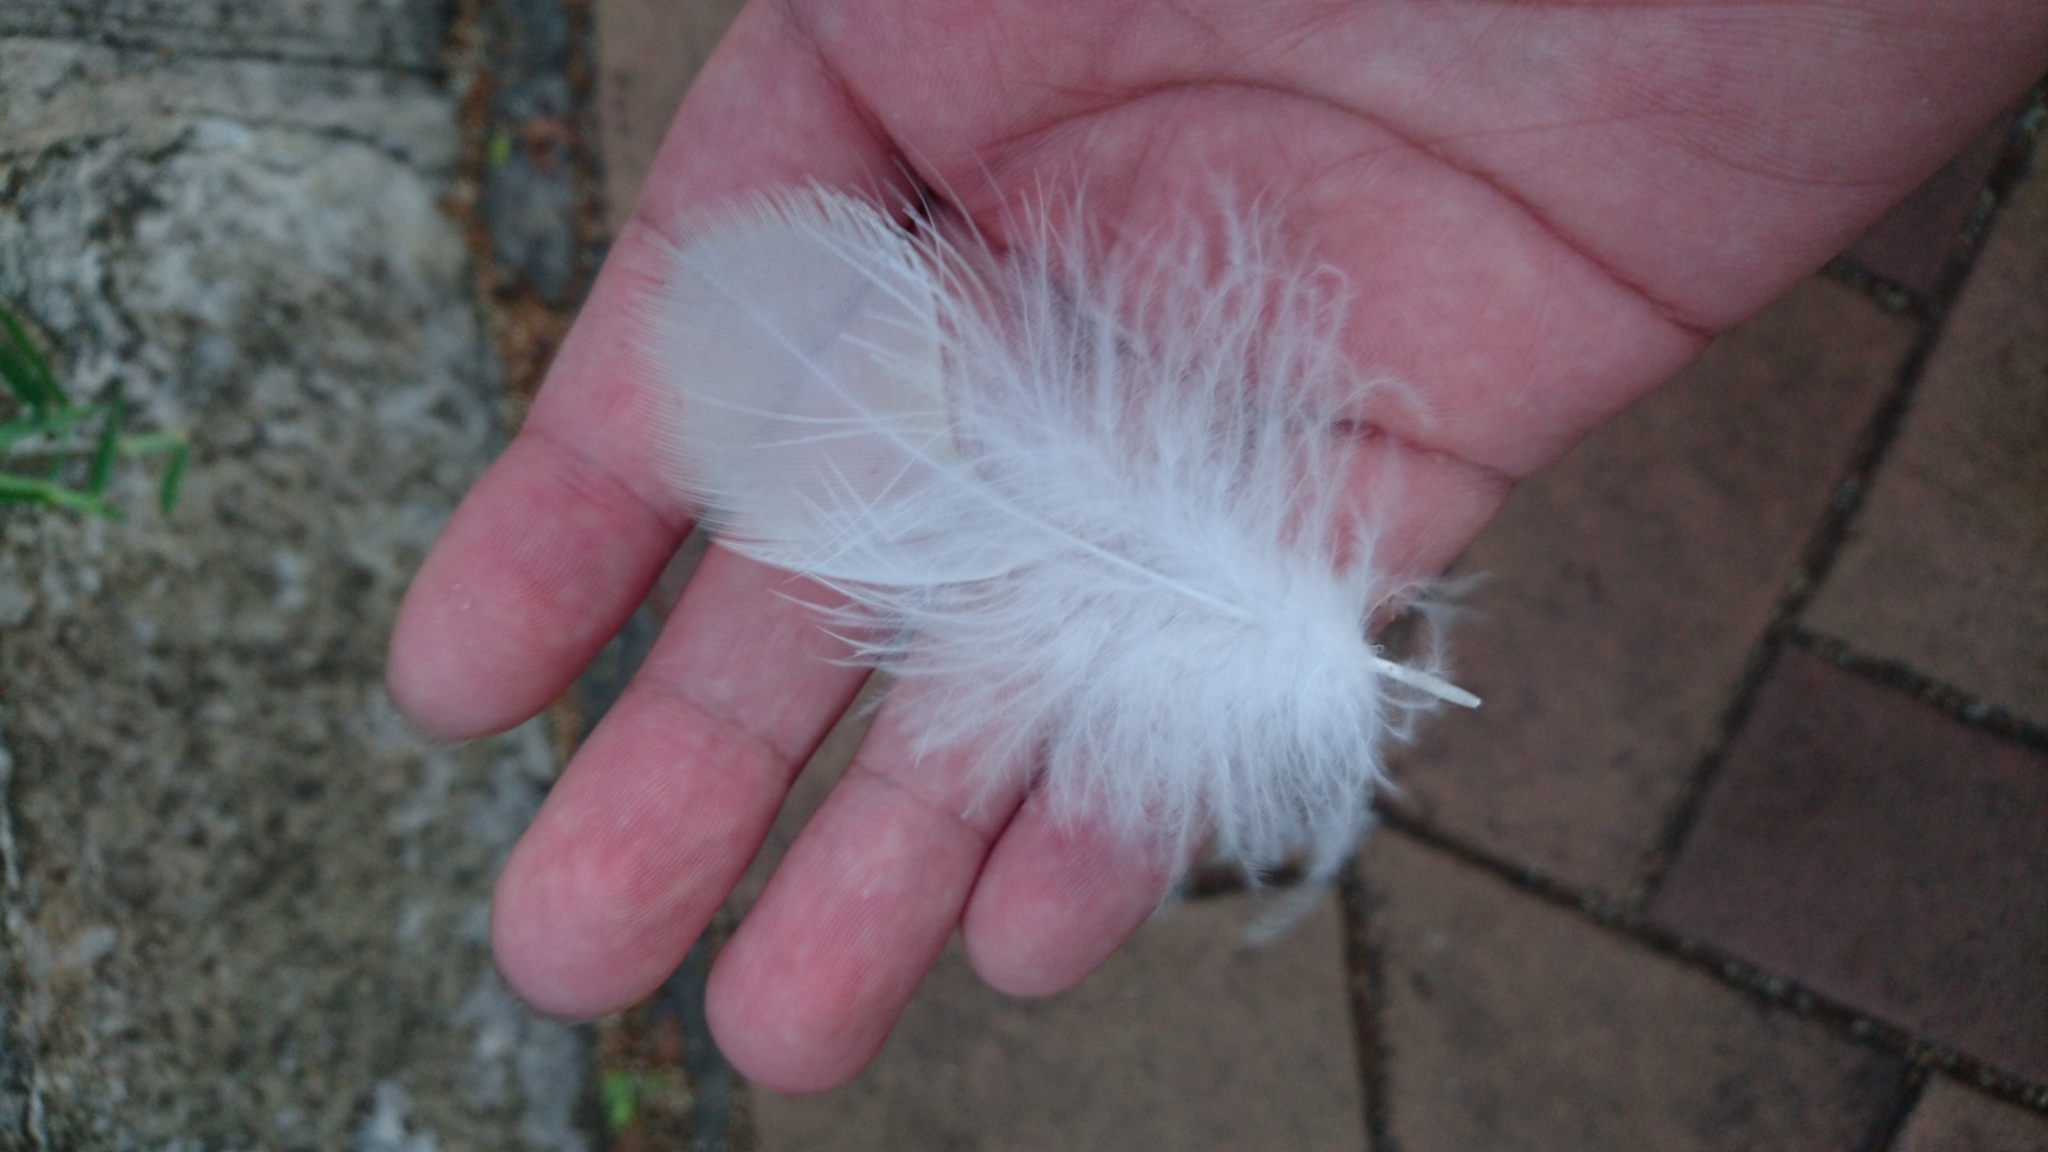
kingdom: Animalia
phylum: Chordata
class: Aves
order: Psittaciformes
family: Psittacidae
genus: Cacatua
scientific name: Cacatua galerita
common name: Sulphur-crested cockatoo
